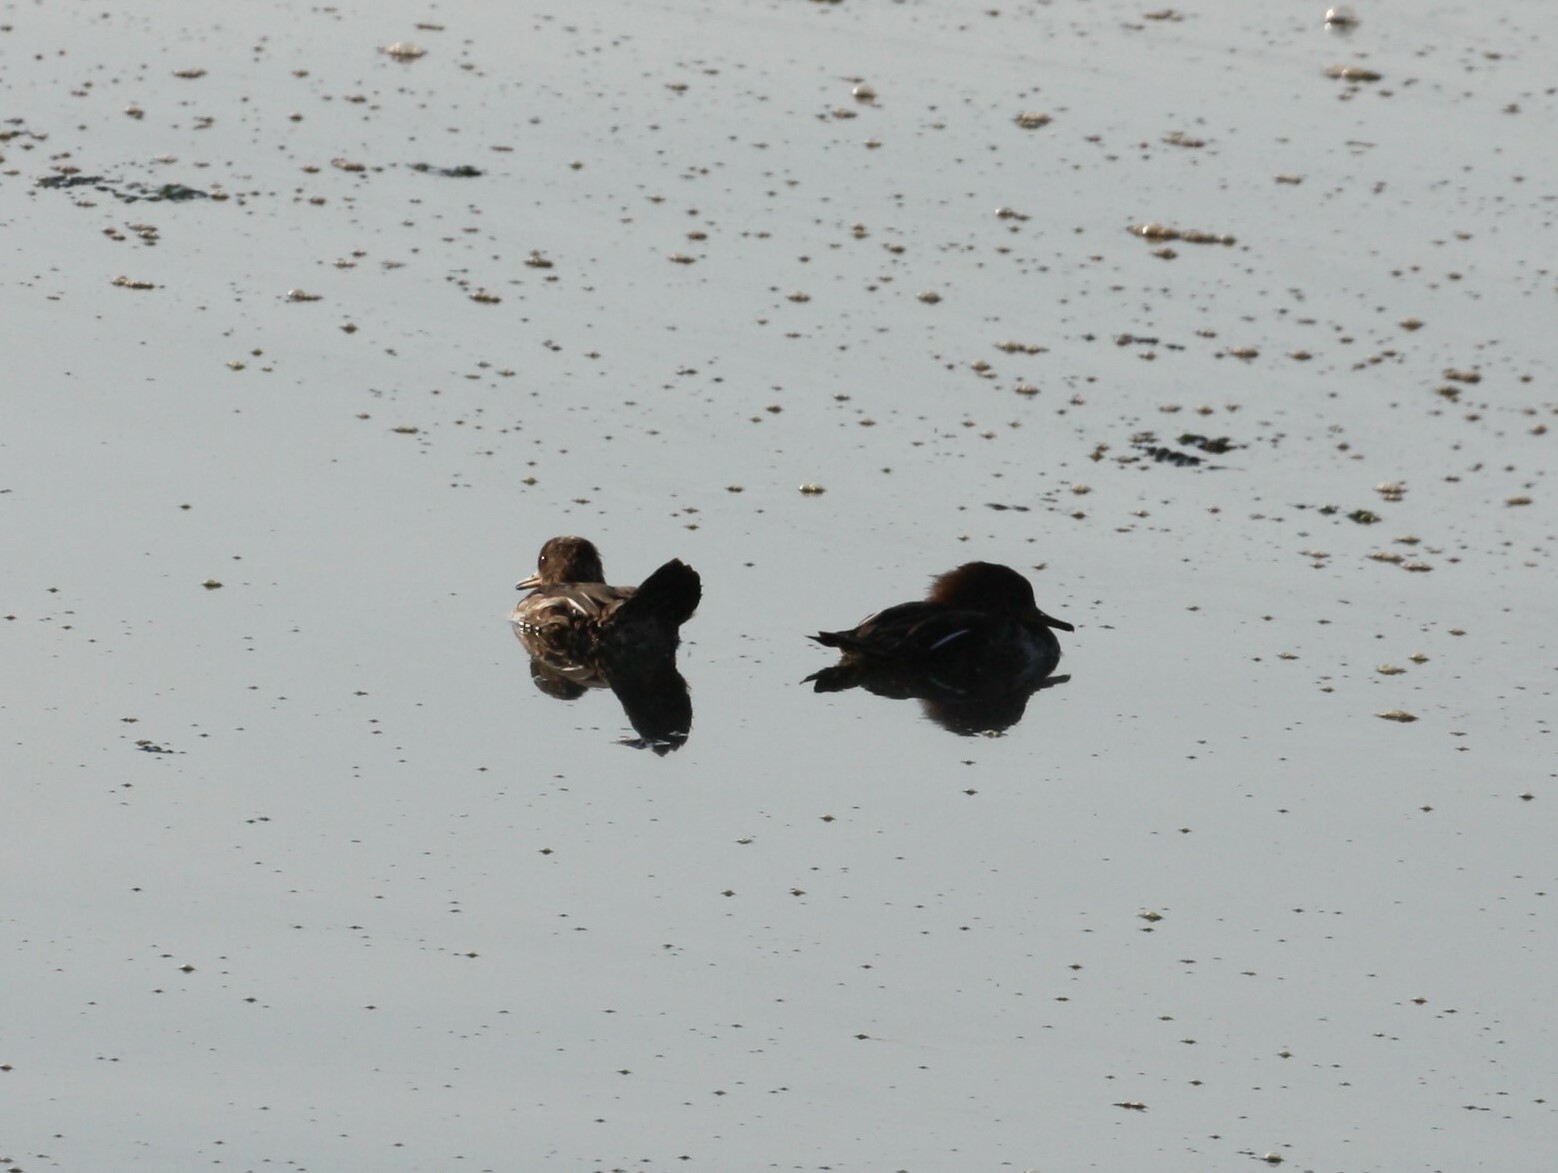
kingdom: Animalia
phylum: Chordata
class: Aves
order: Anseriformes
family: Anatidae
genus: Lophodytes
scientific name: Lophodytes cucullatus
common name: Hooded merganser
